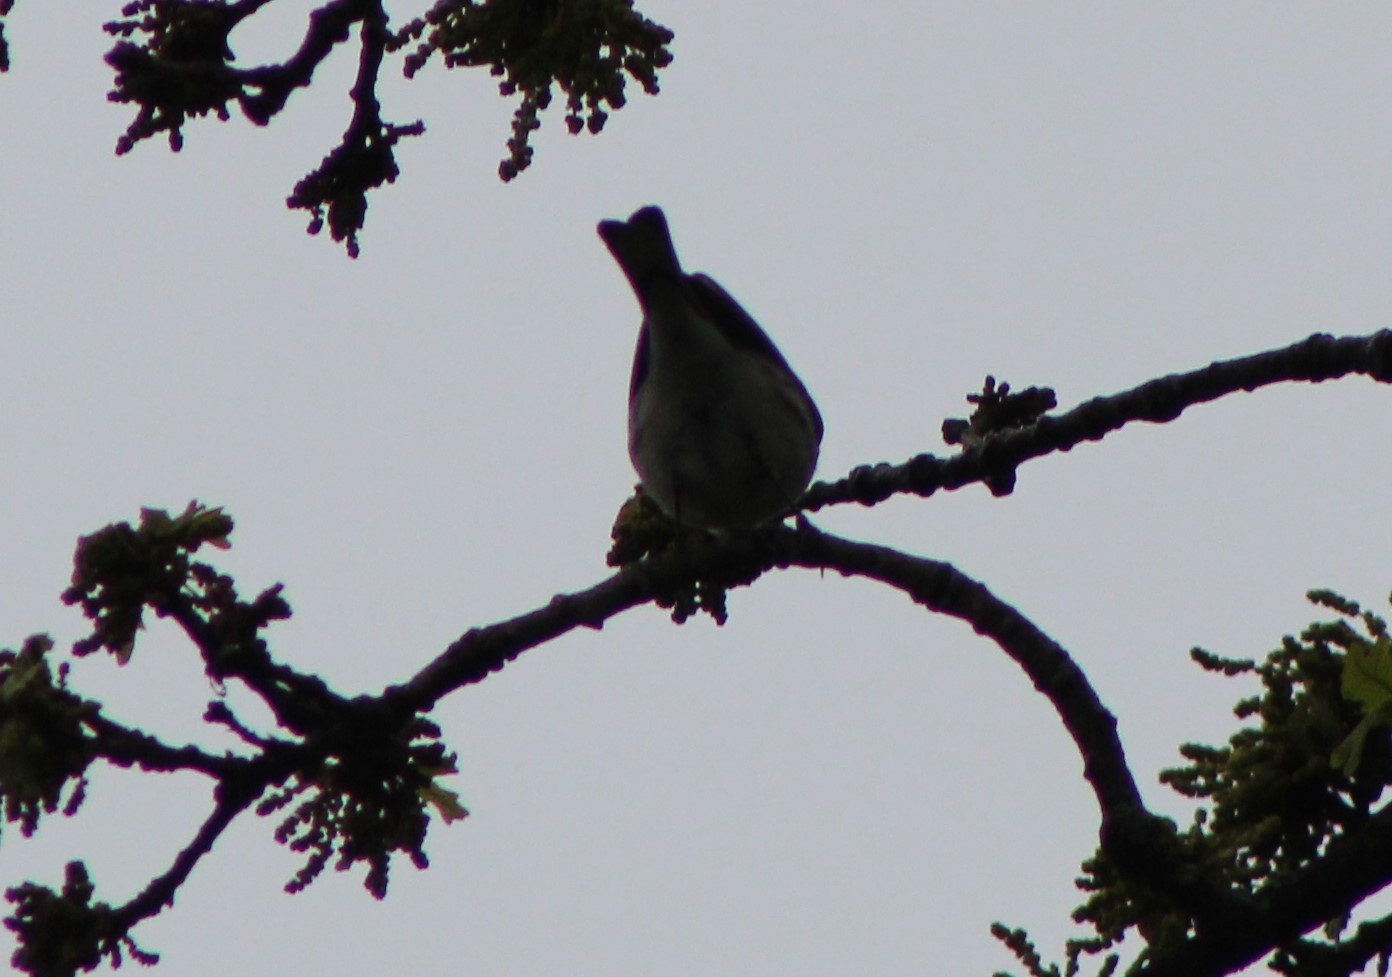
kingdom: Animalia
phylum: Chordata
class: Aves
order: Passeriformes
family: Parulidae
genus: Setophaga
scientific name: Setophaga coronata
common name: Myrtle warbler
